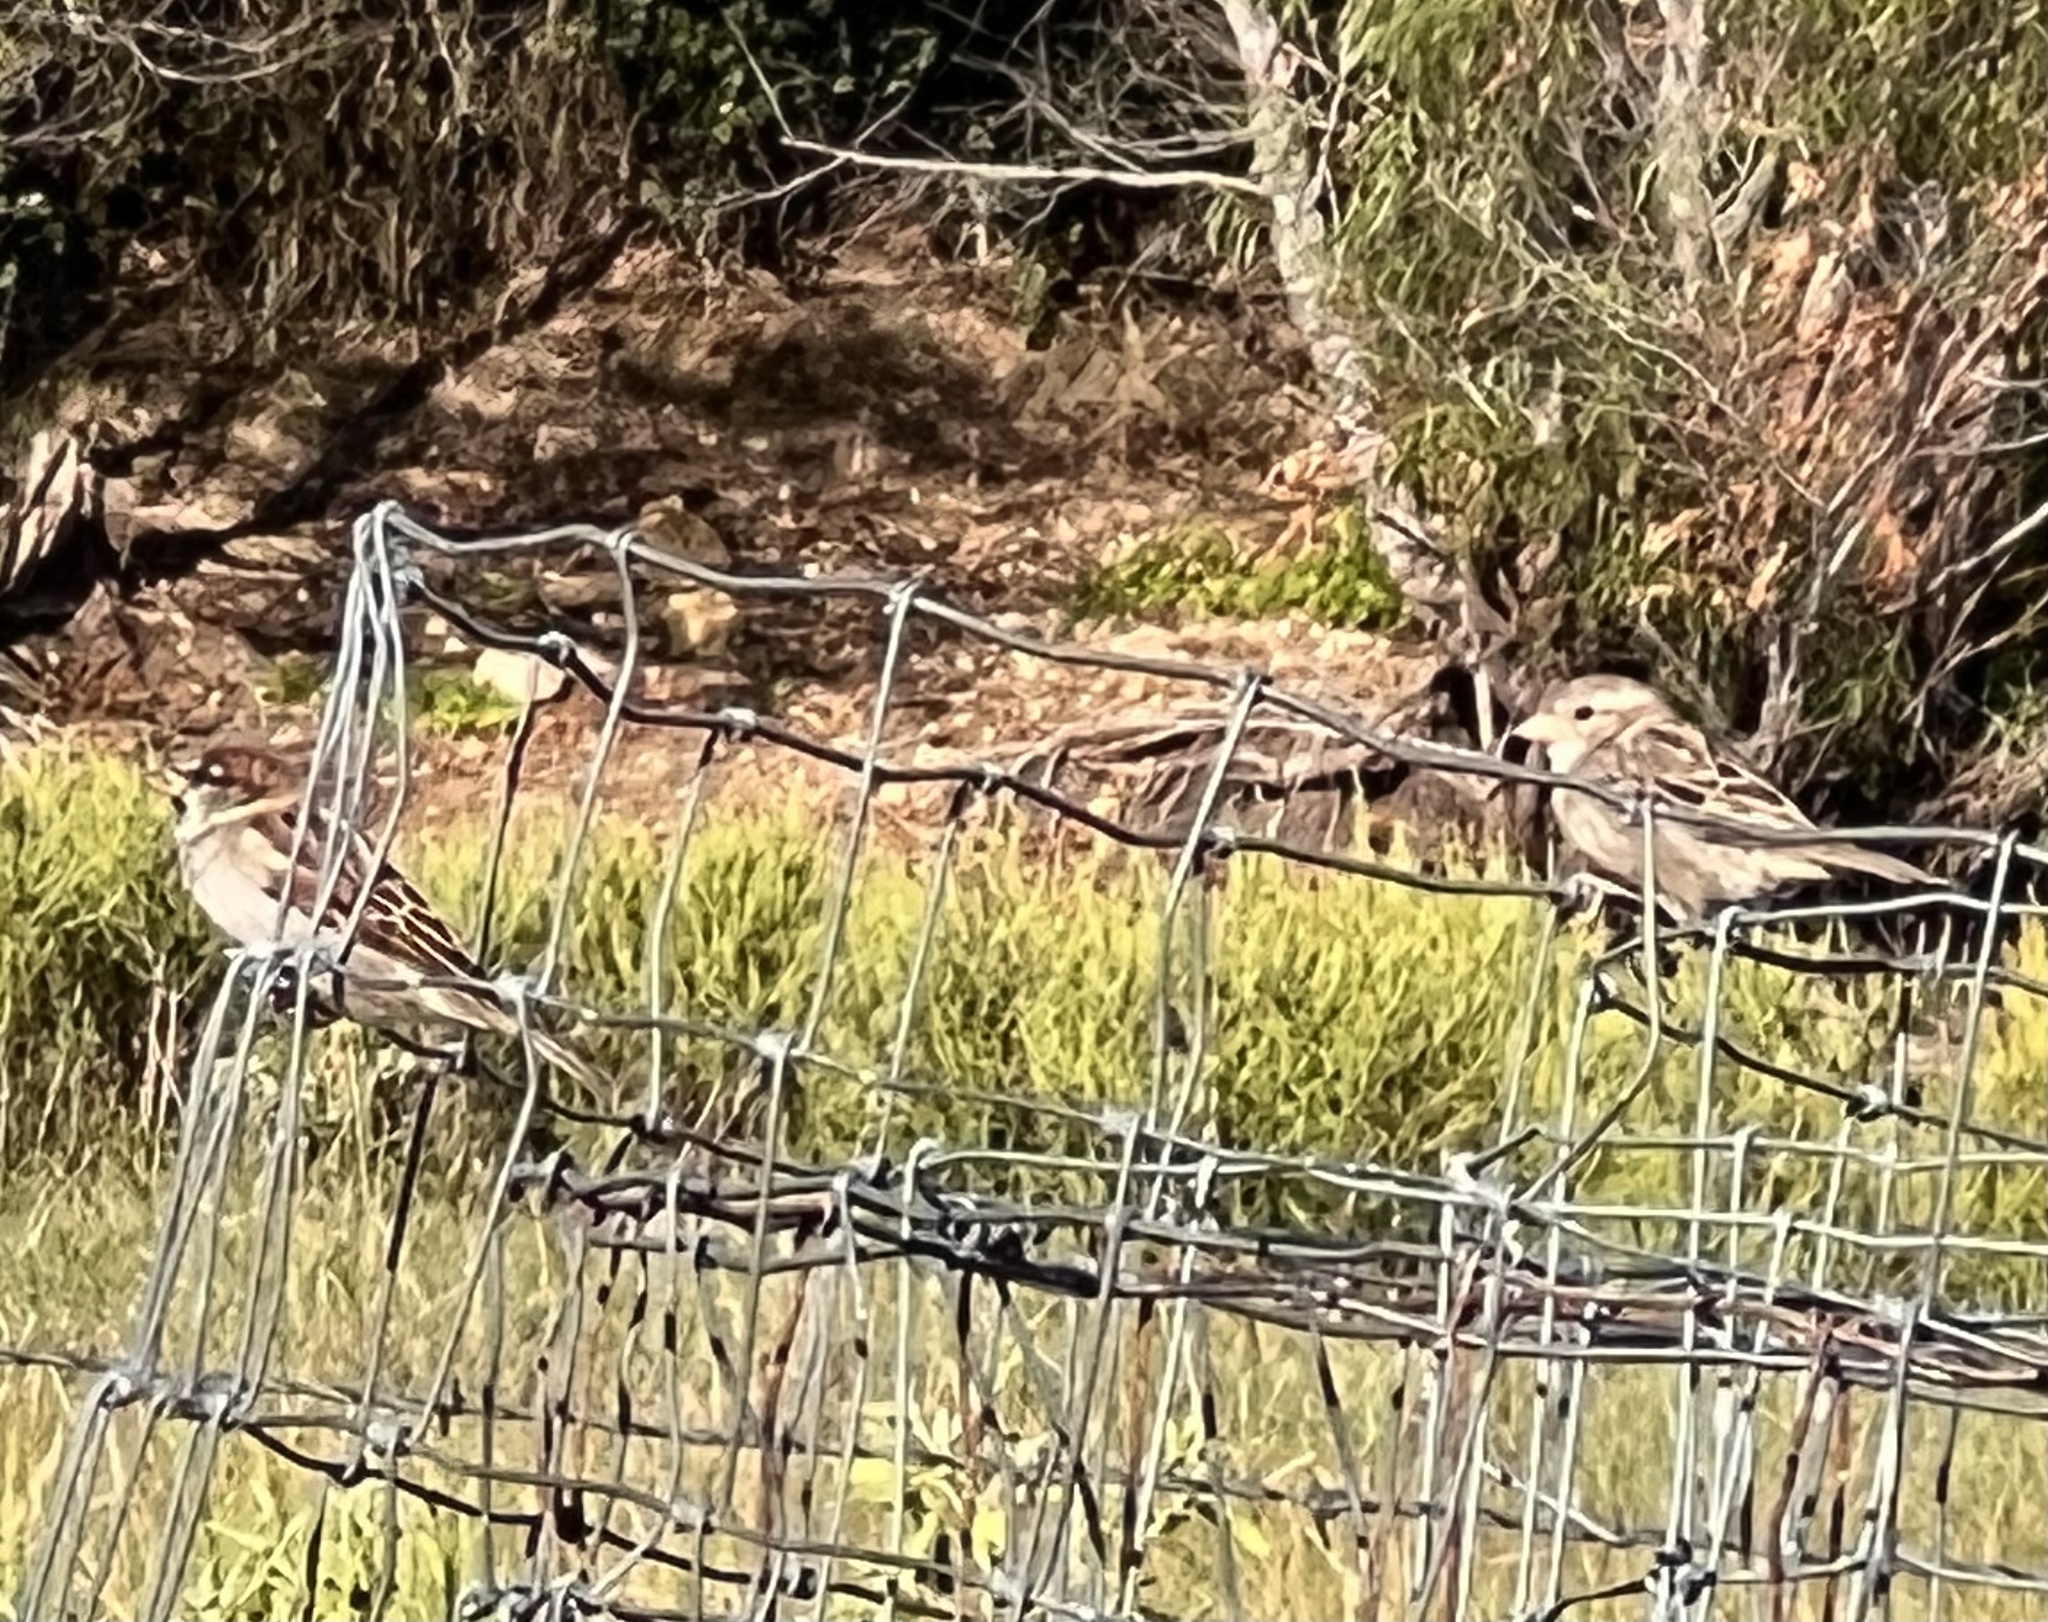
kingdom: Animalia
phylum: Chordata
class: Aves
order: Passeriformes
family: Passeridae
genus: Passer
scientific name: Passer domesticus
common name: House sparrow
